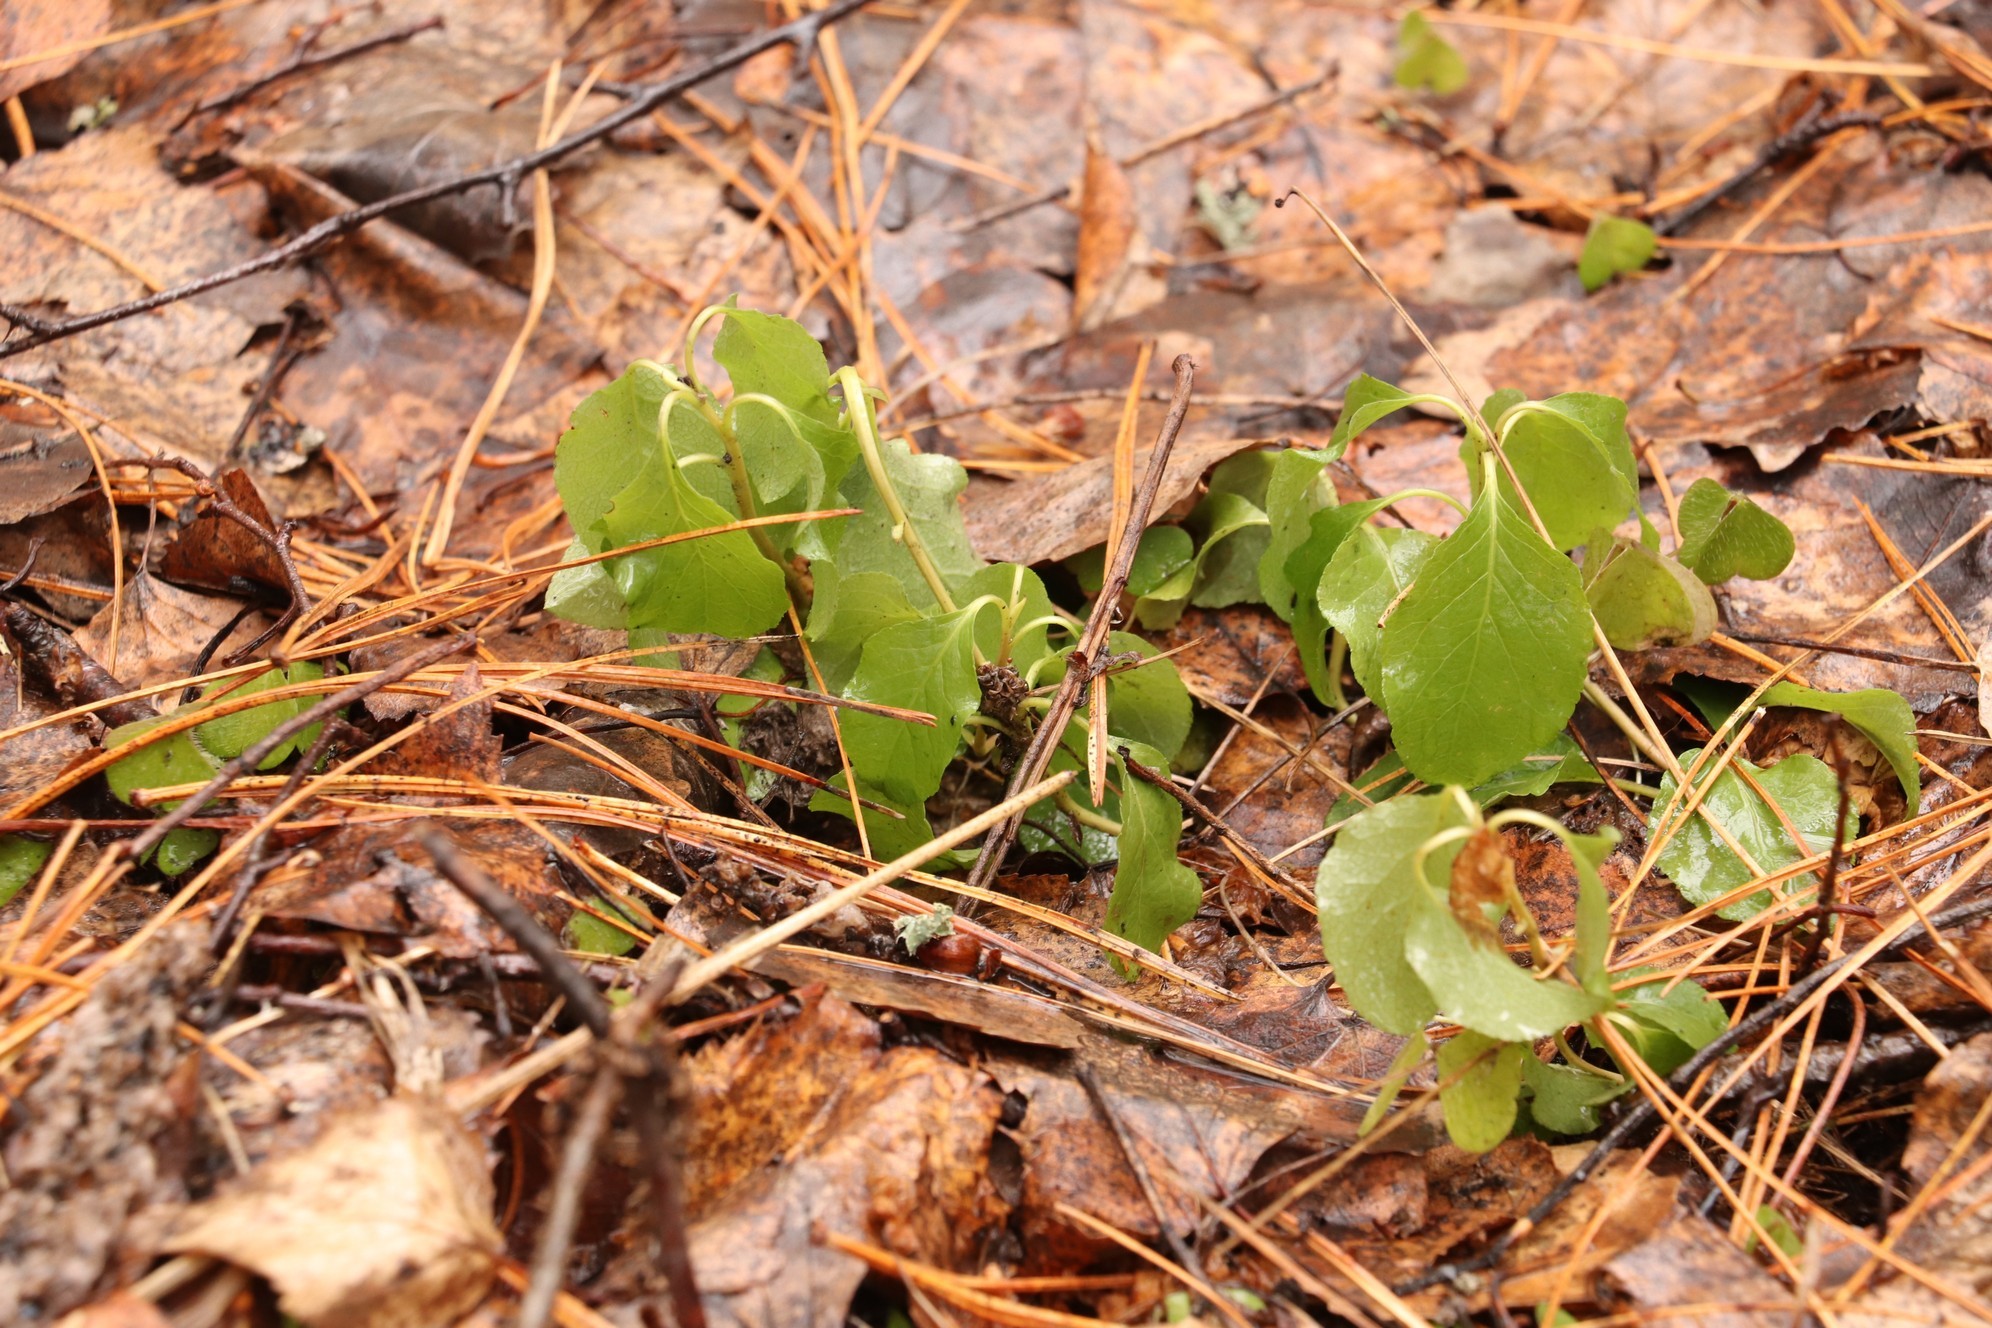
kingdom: Plantae
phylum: Tracheophyta
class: Magnoliopsida
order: Ericales
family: Ericaceae
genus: Orthilia
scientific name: Orthilia secunda
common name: One-sided orthilia
